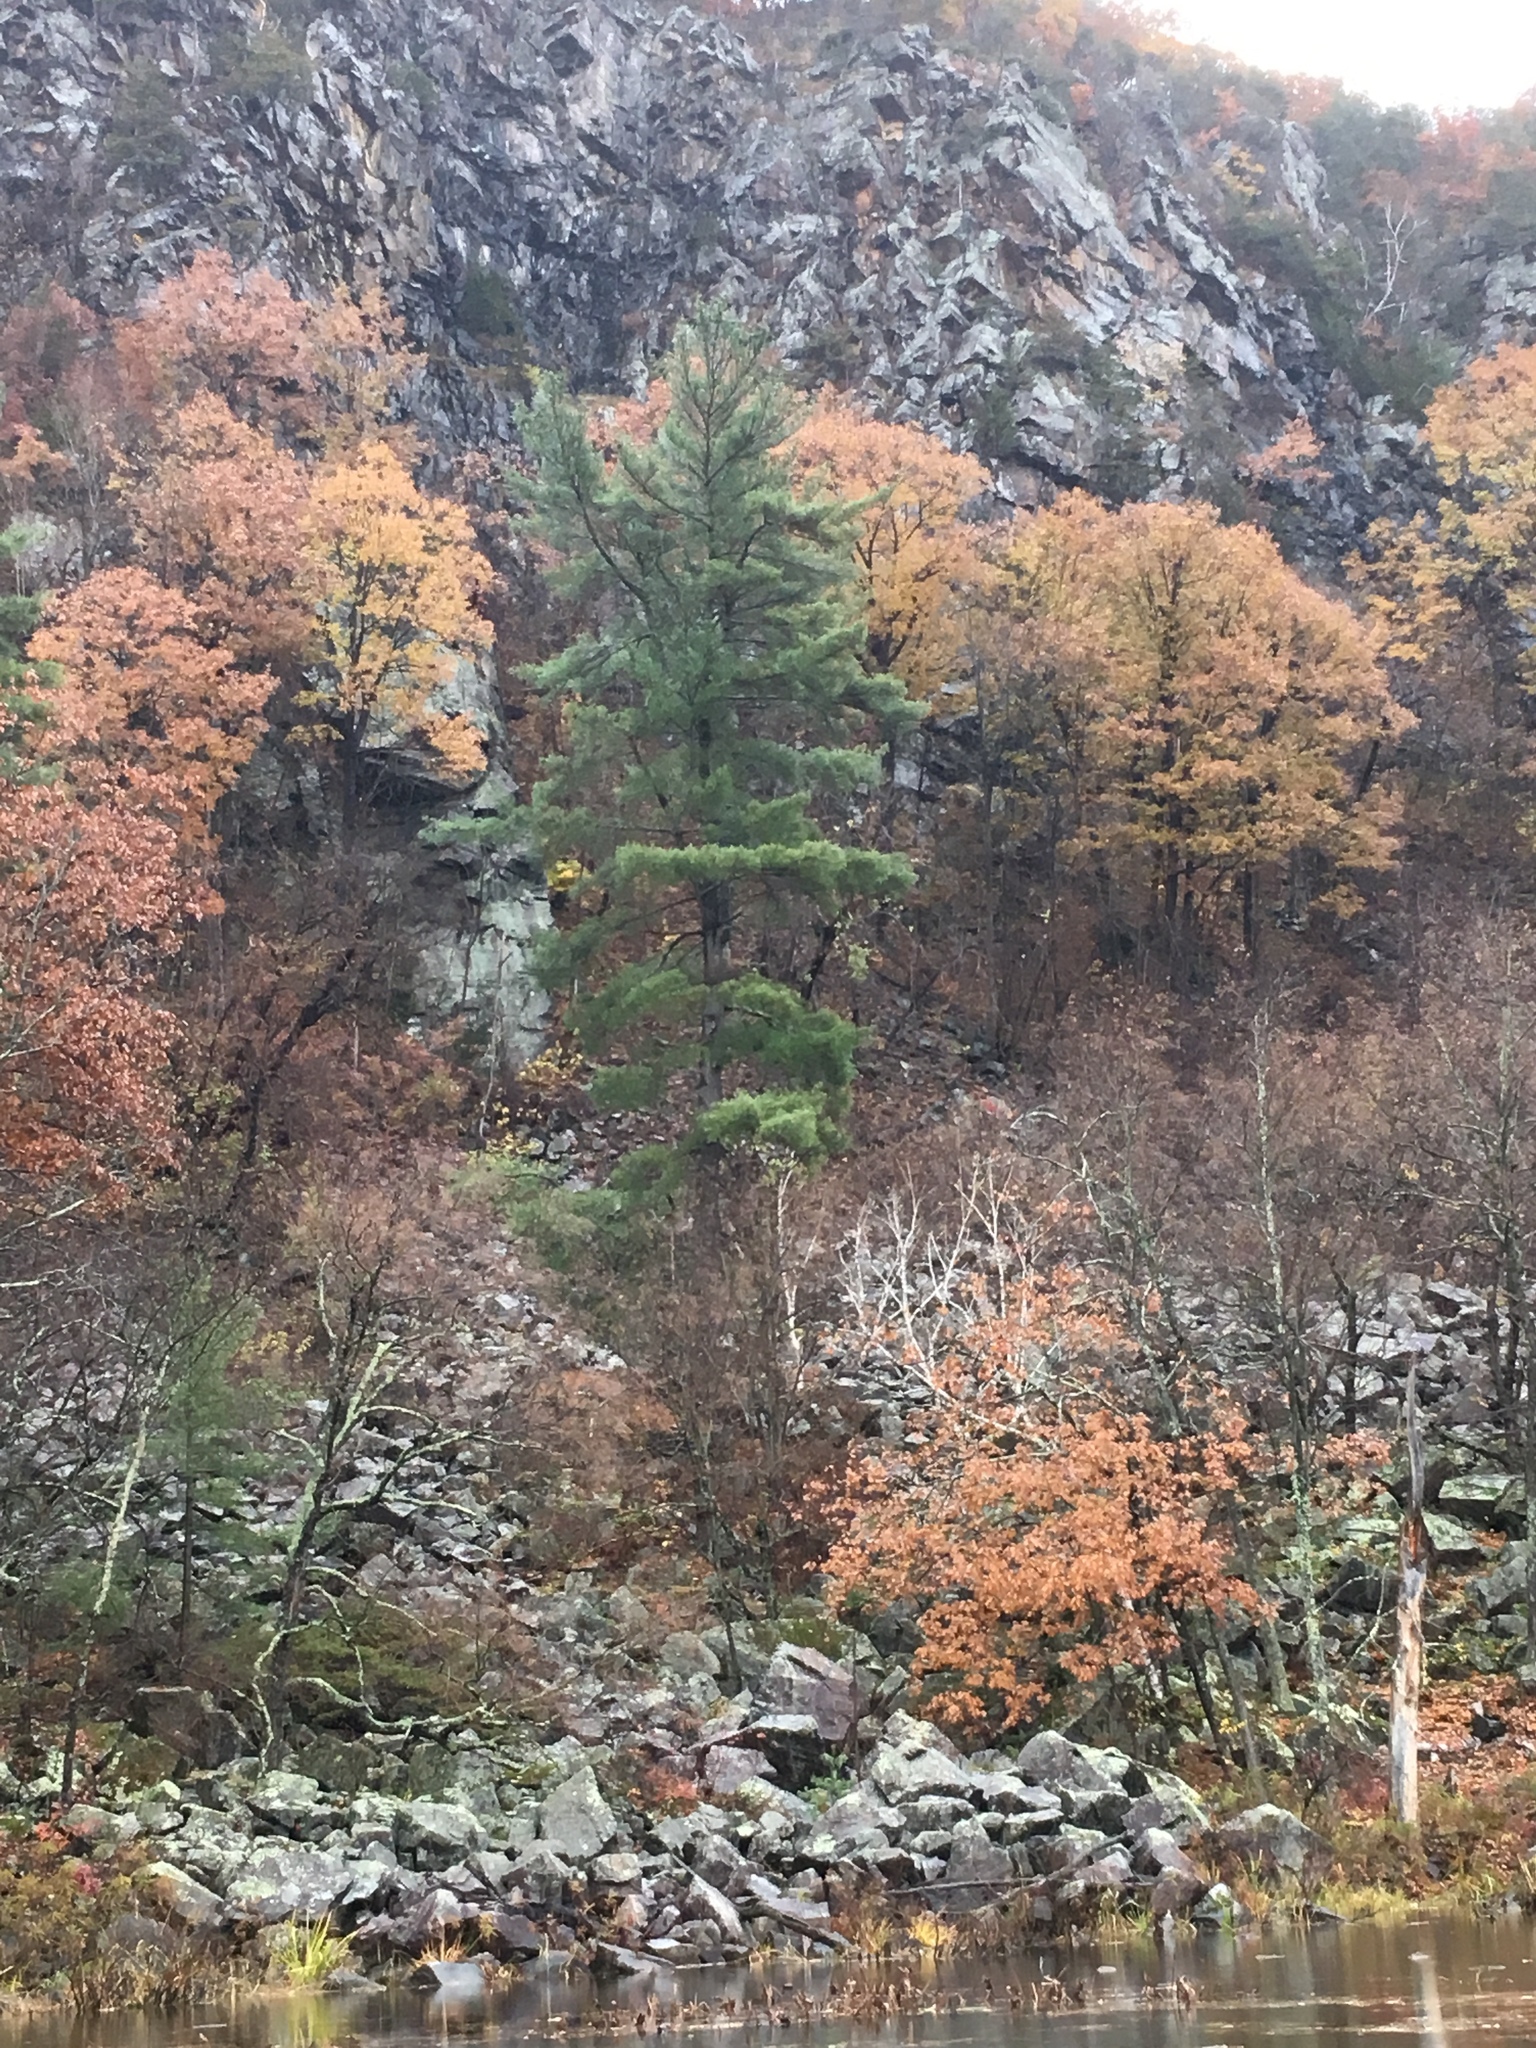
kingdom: Plantae
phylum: Tracheophyta
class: Magnoliopsida
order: Fagales
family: Fagaceae
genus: Quercus
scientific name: Quercus rubra
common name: Red oak
